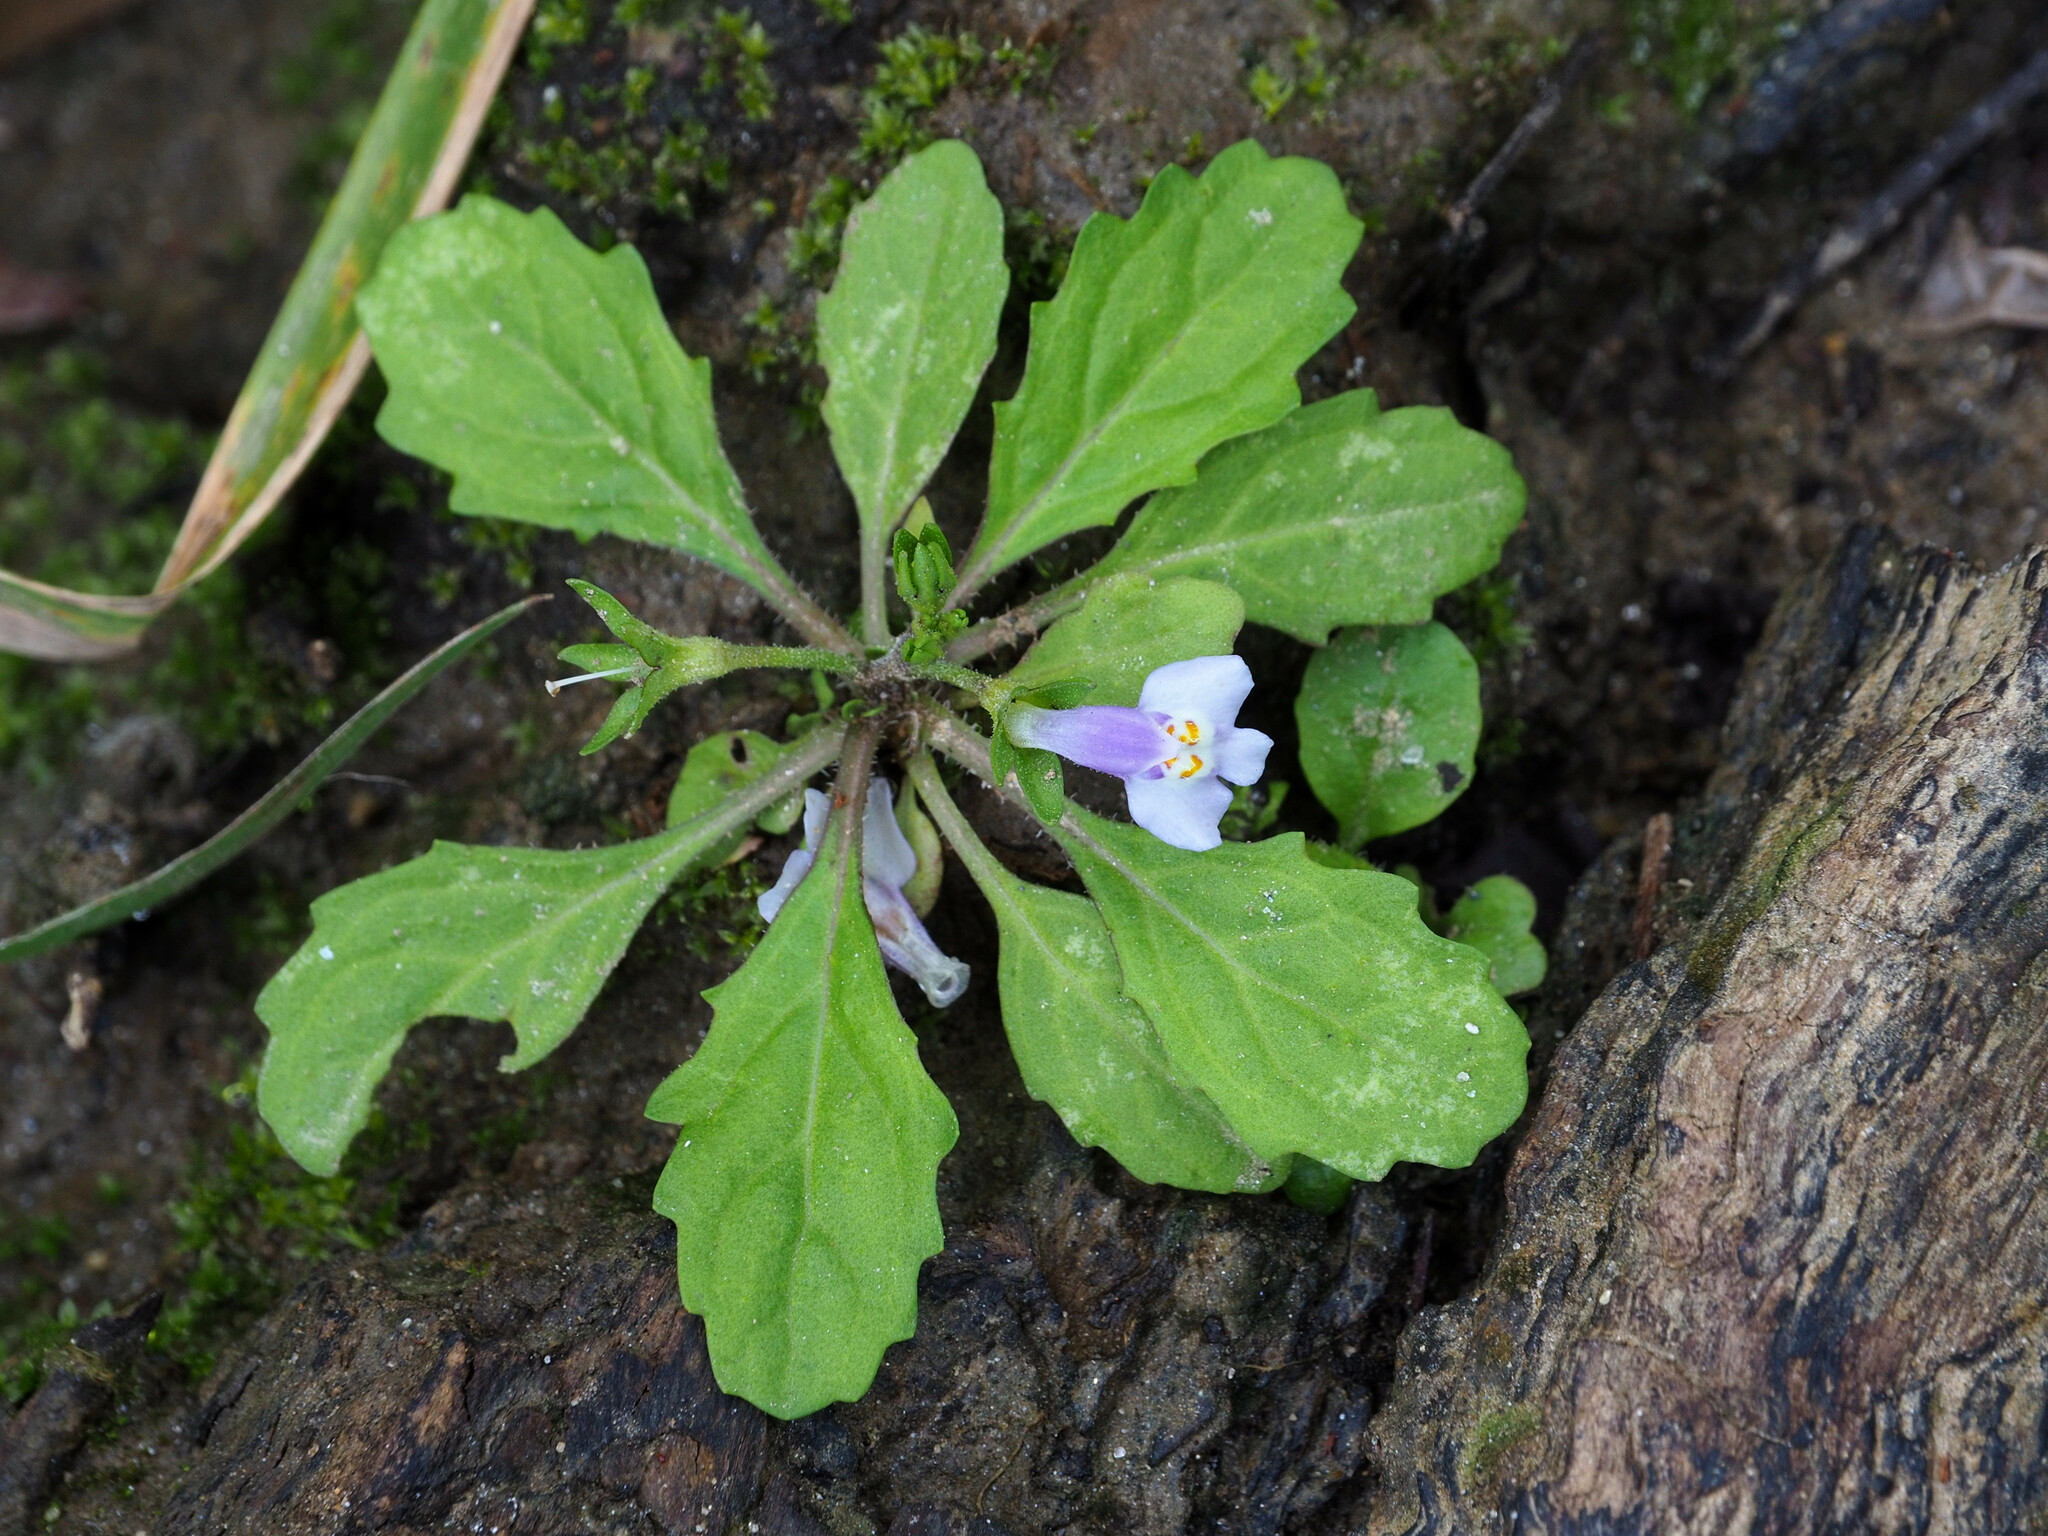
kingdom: Plantae
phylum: Tracheophyta
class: Magnoliopsida
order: Lamiales
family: Mazaceae
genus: Mazus
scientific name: Mazus pumilus
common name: Japanese mazus
